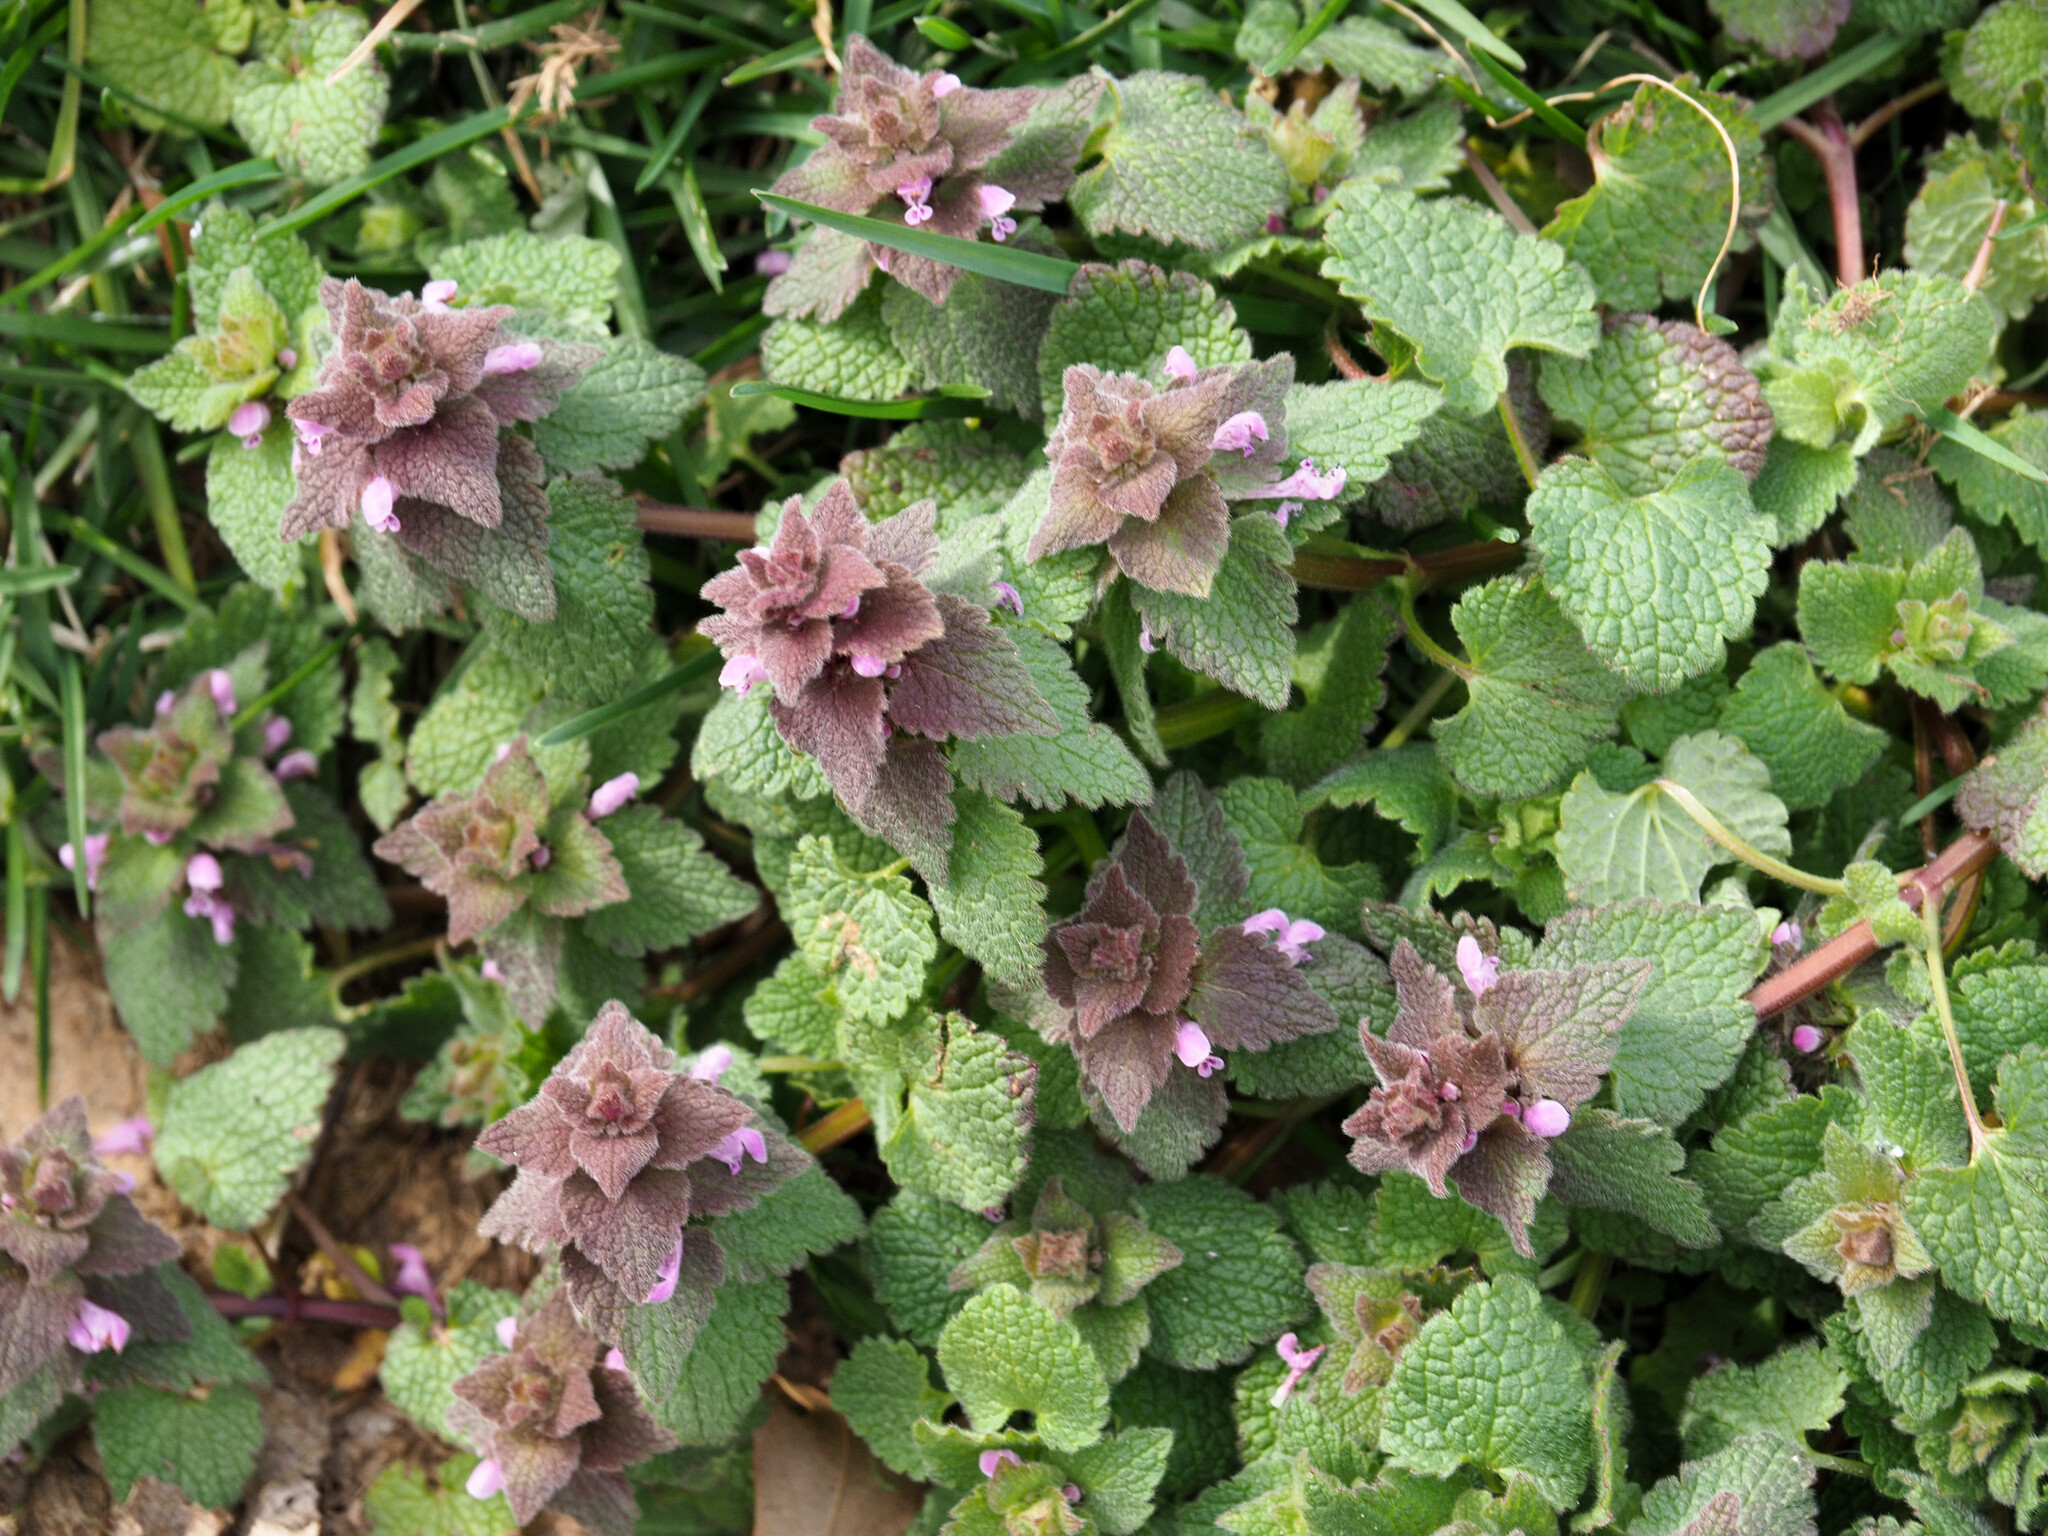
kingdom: Plantae
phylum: Tracheophyta
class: Magnoliopsida
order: Lamiales
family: Lamiaceae
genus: Lamium
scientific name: Lamium purpureum
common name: Red dead-nettle
